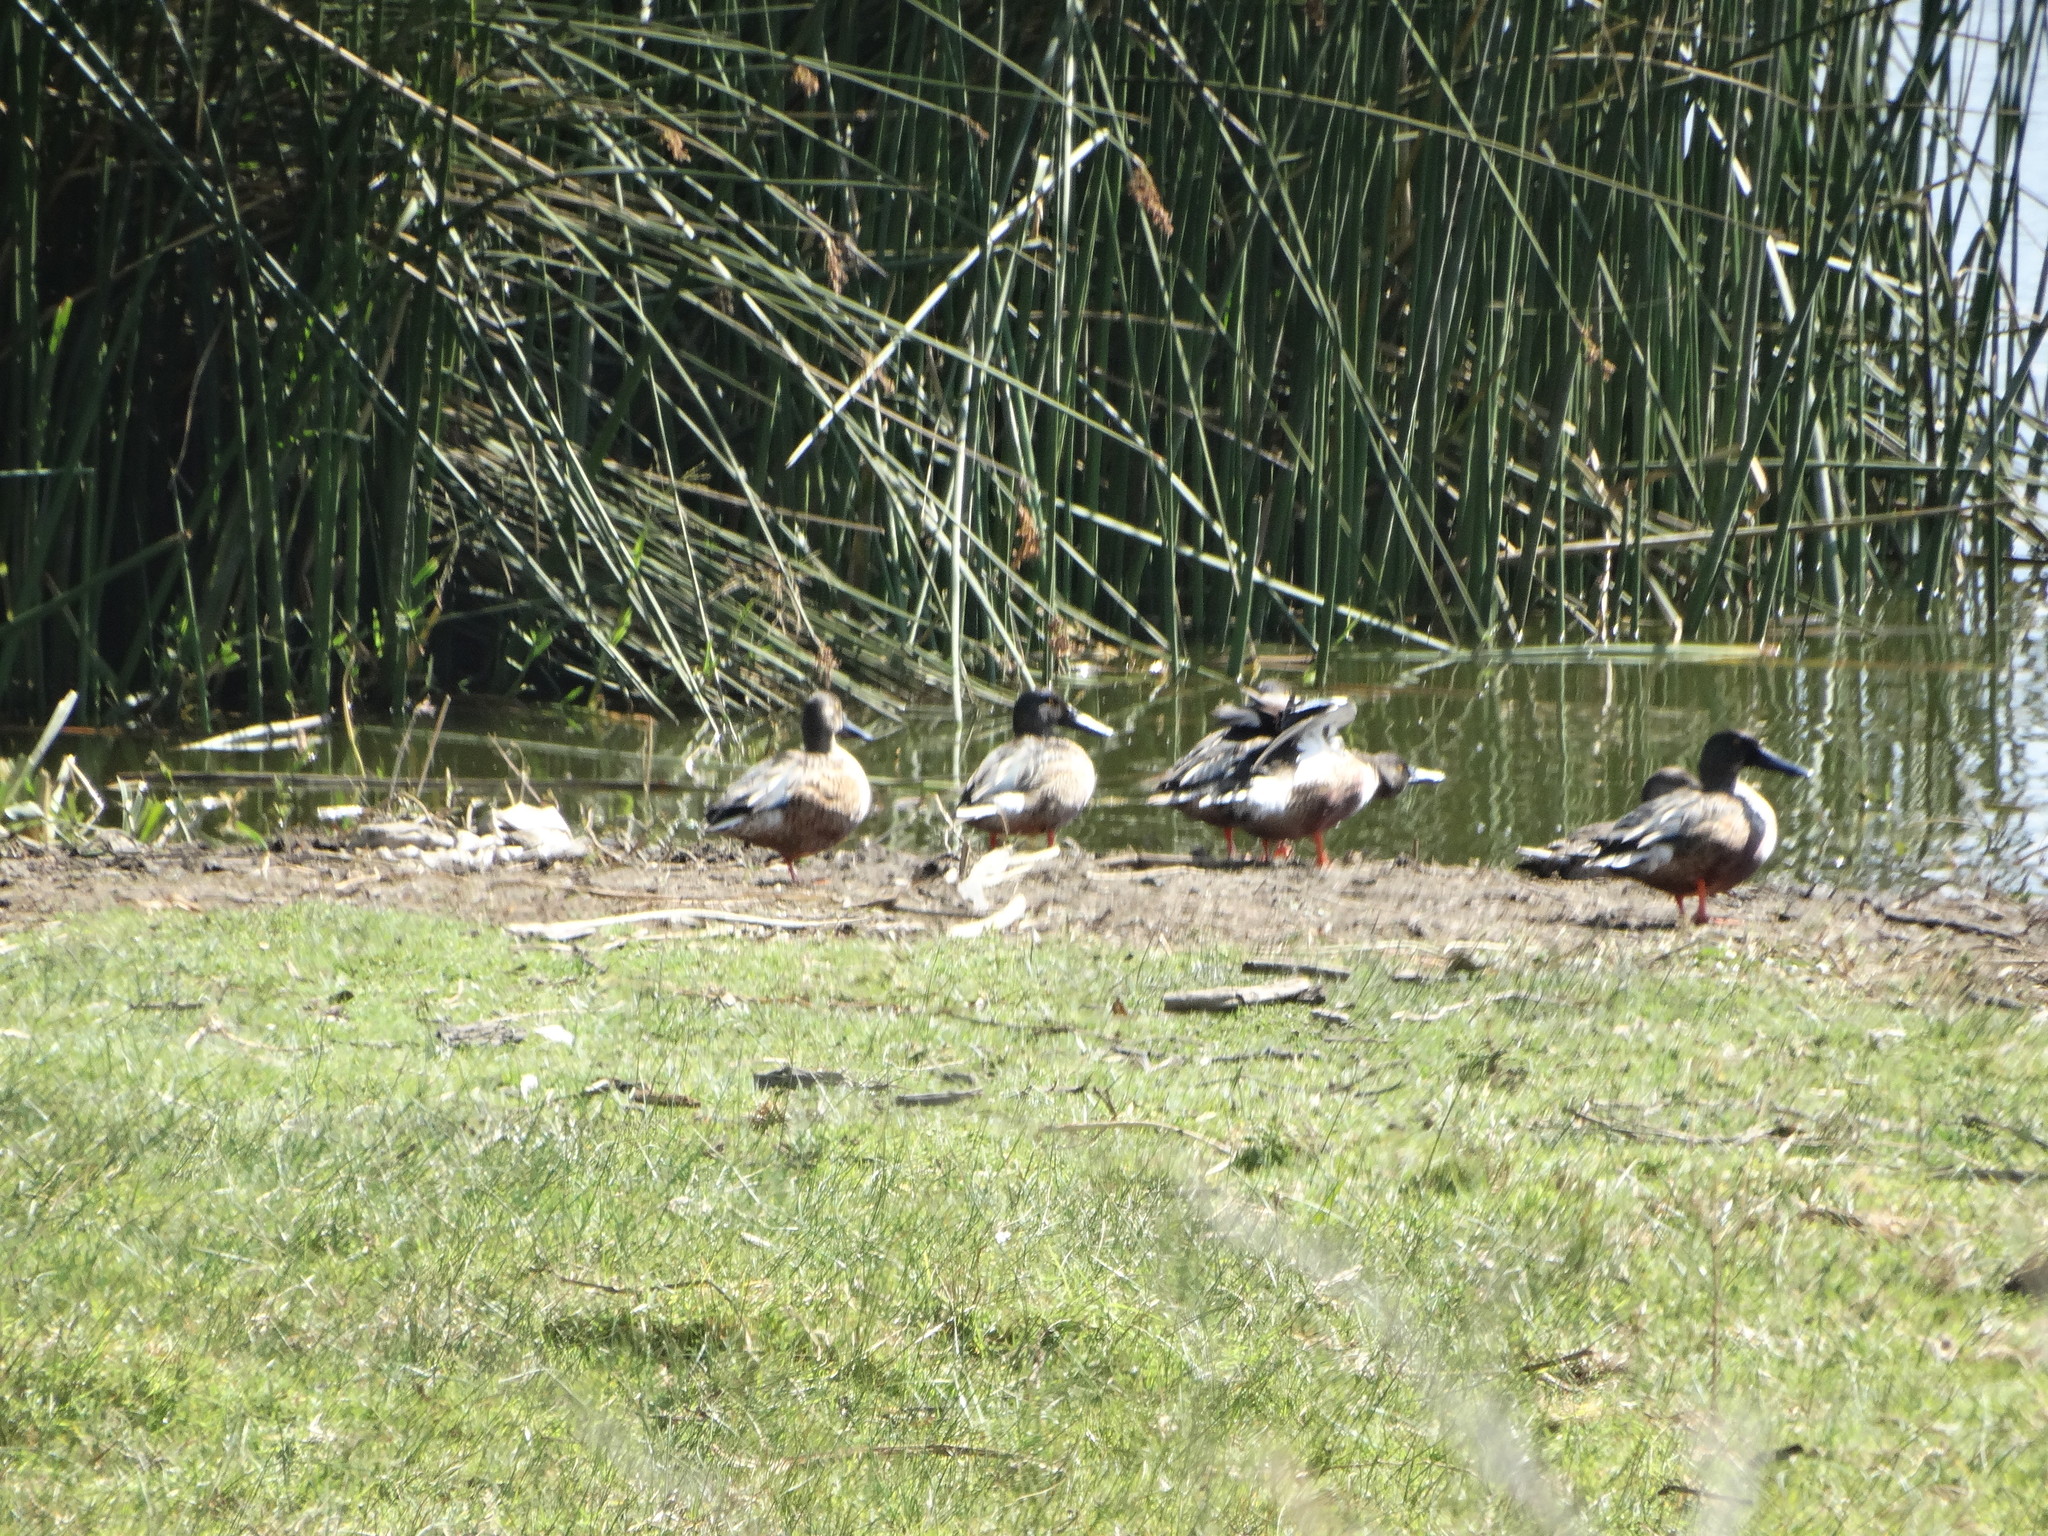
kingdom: Animalia
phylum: Chordata
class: Aves
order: Anseriformes
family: Anatidae
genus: Spatula
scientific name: Spatula clypeata
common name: Northern shoveler
